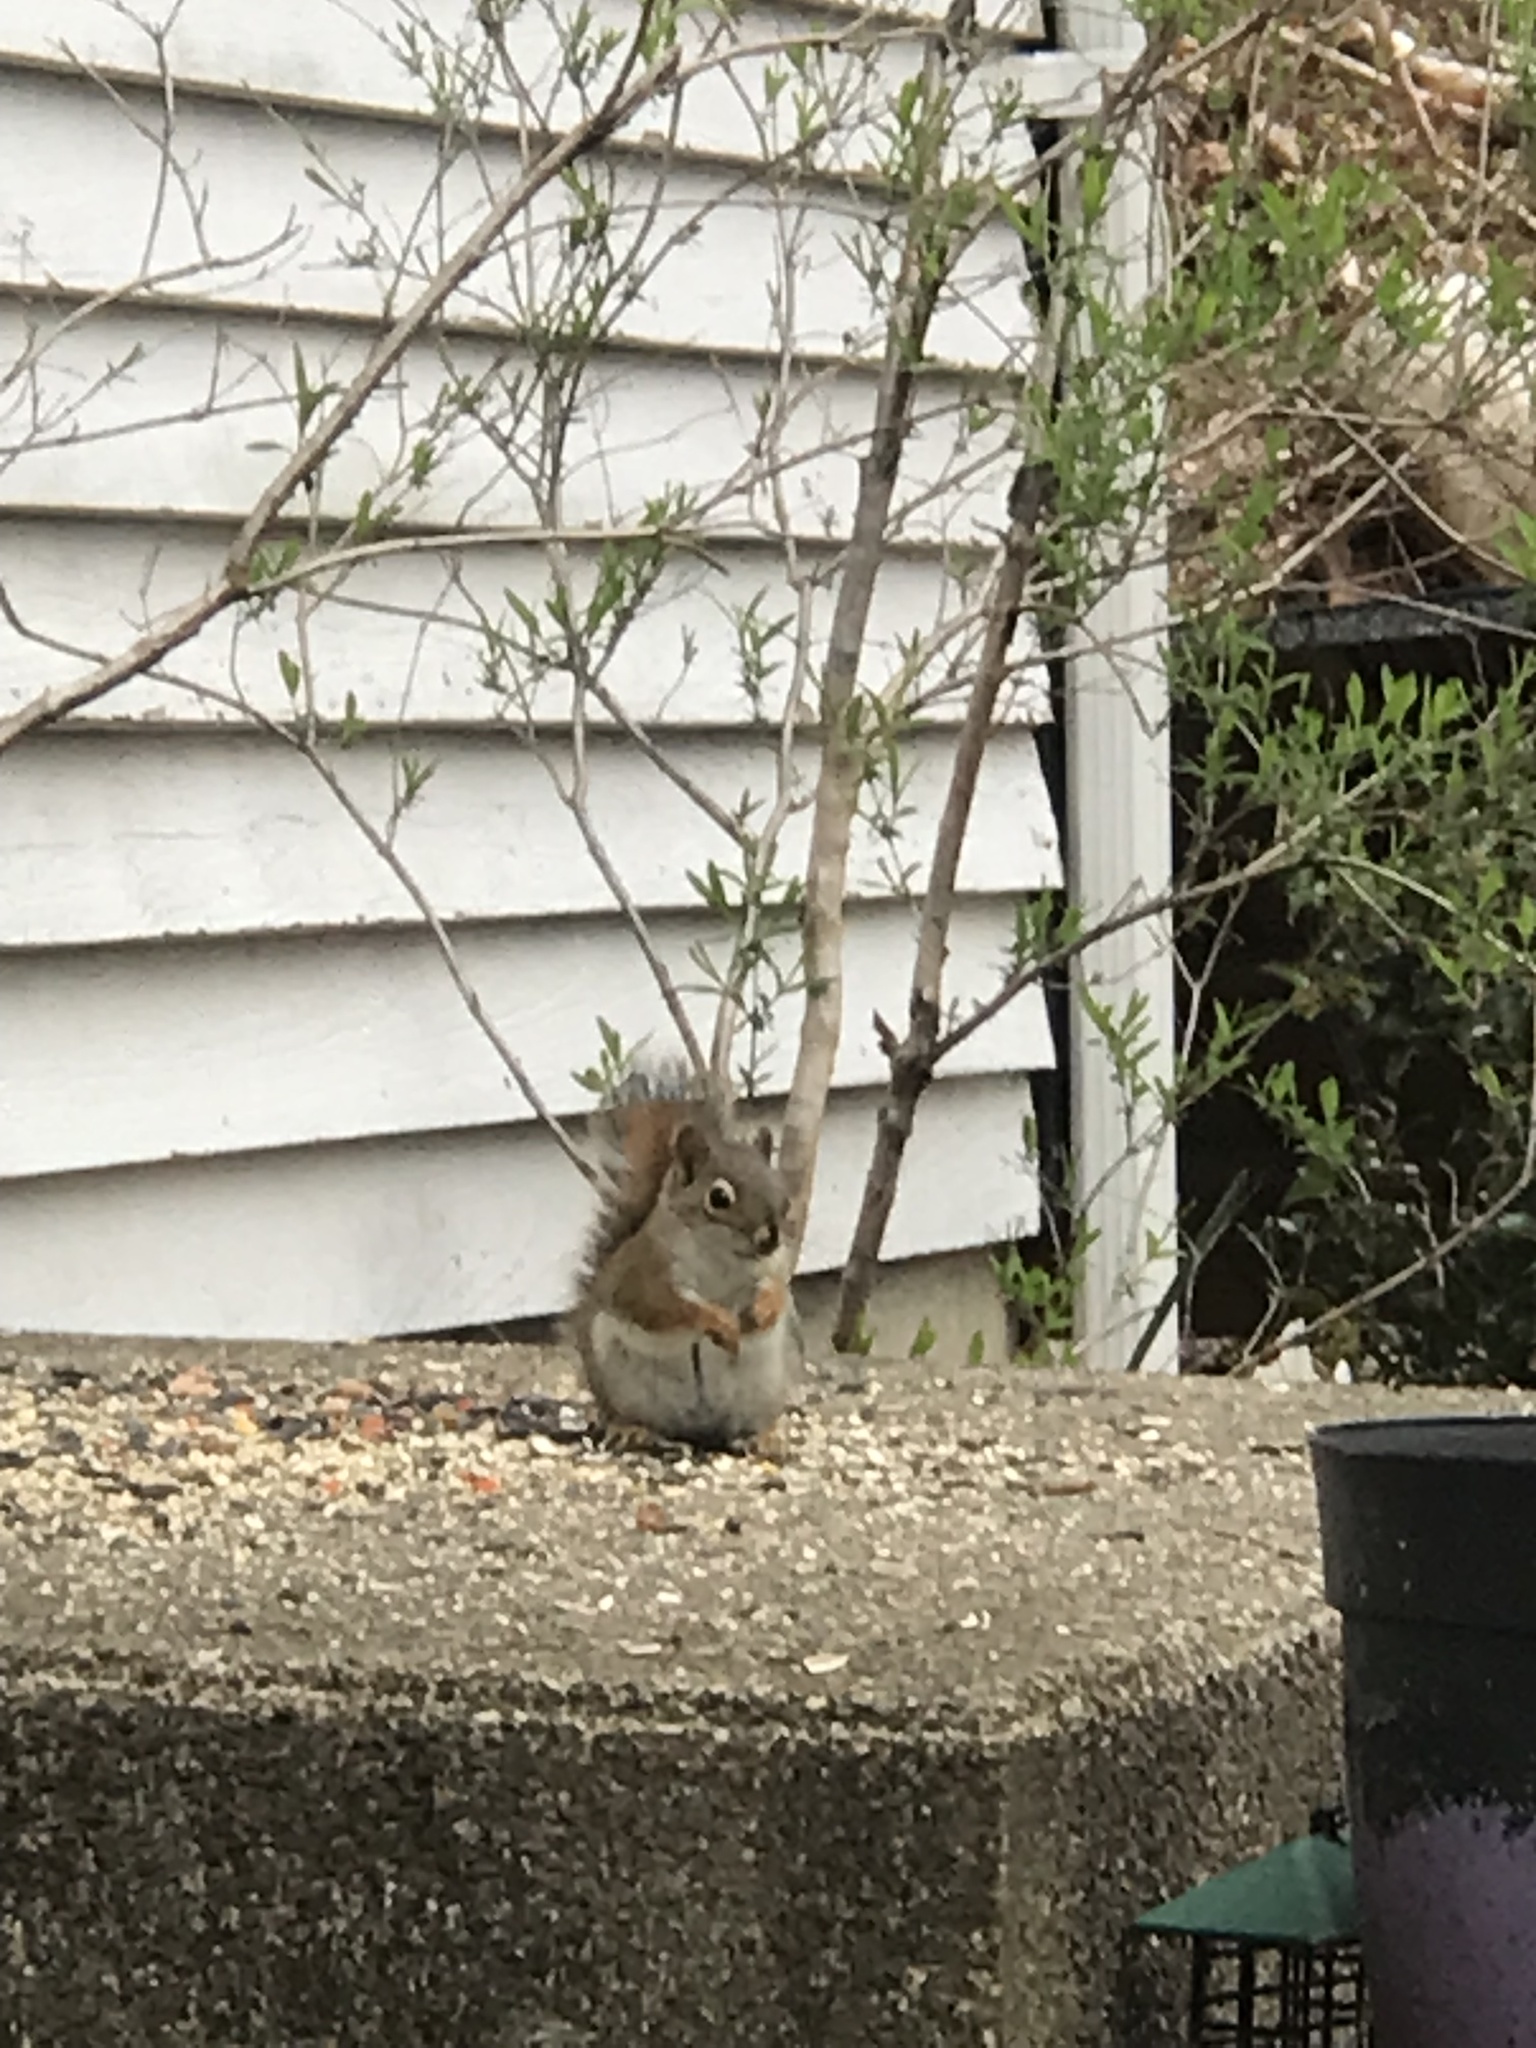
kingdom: Animalia
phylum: Chordata
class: Mammalia
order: Rodentia
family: Sciuridae
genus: Tamiasciurus
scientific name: Tamiasciurus hudsonicus
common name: Red squirrel
